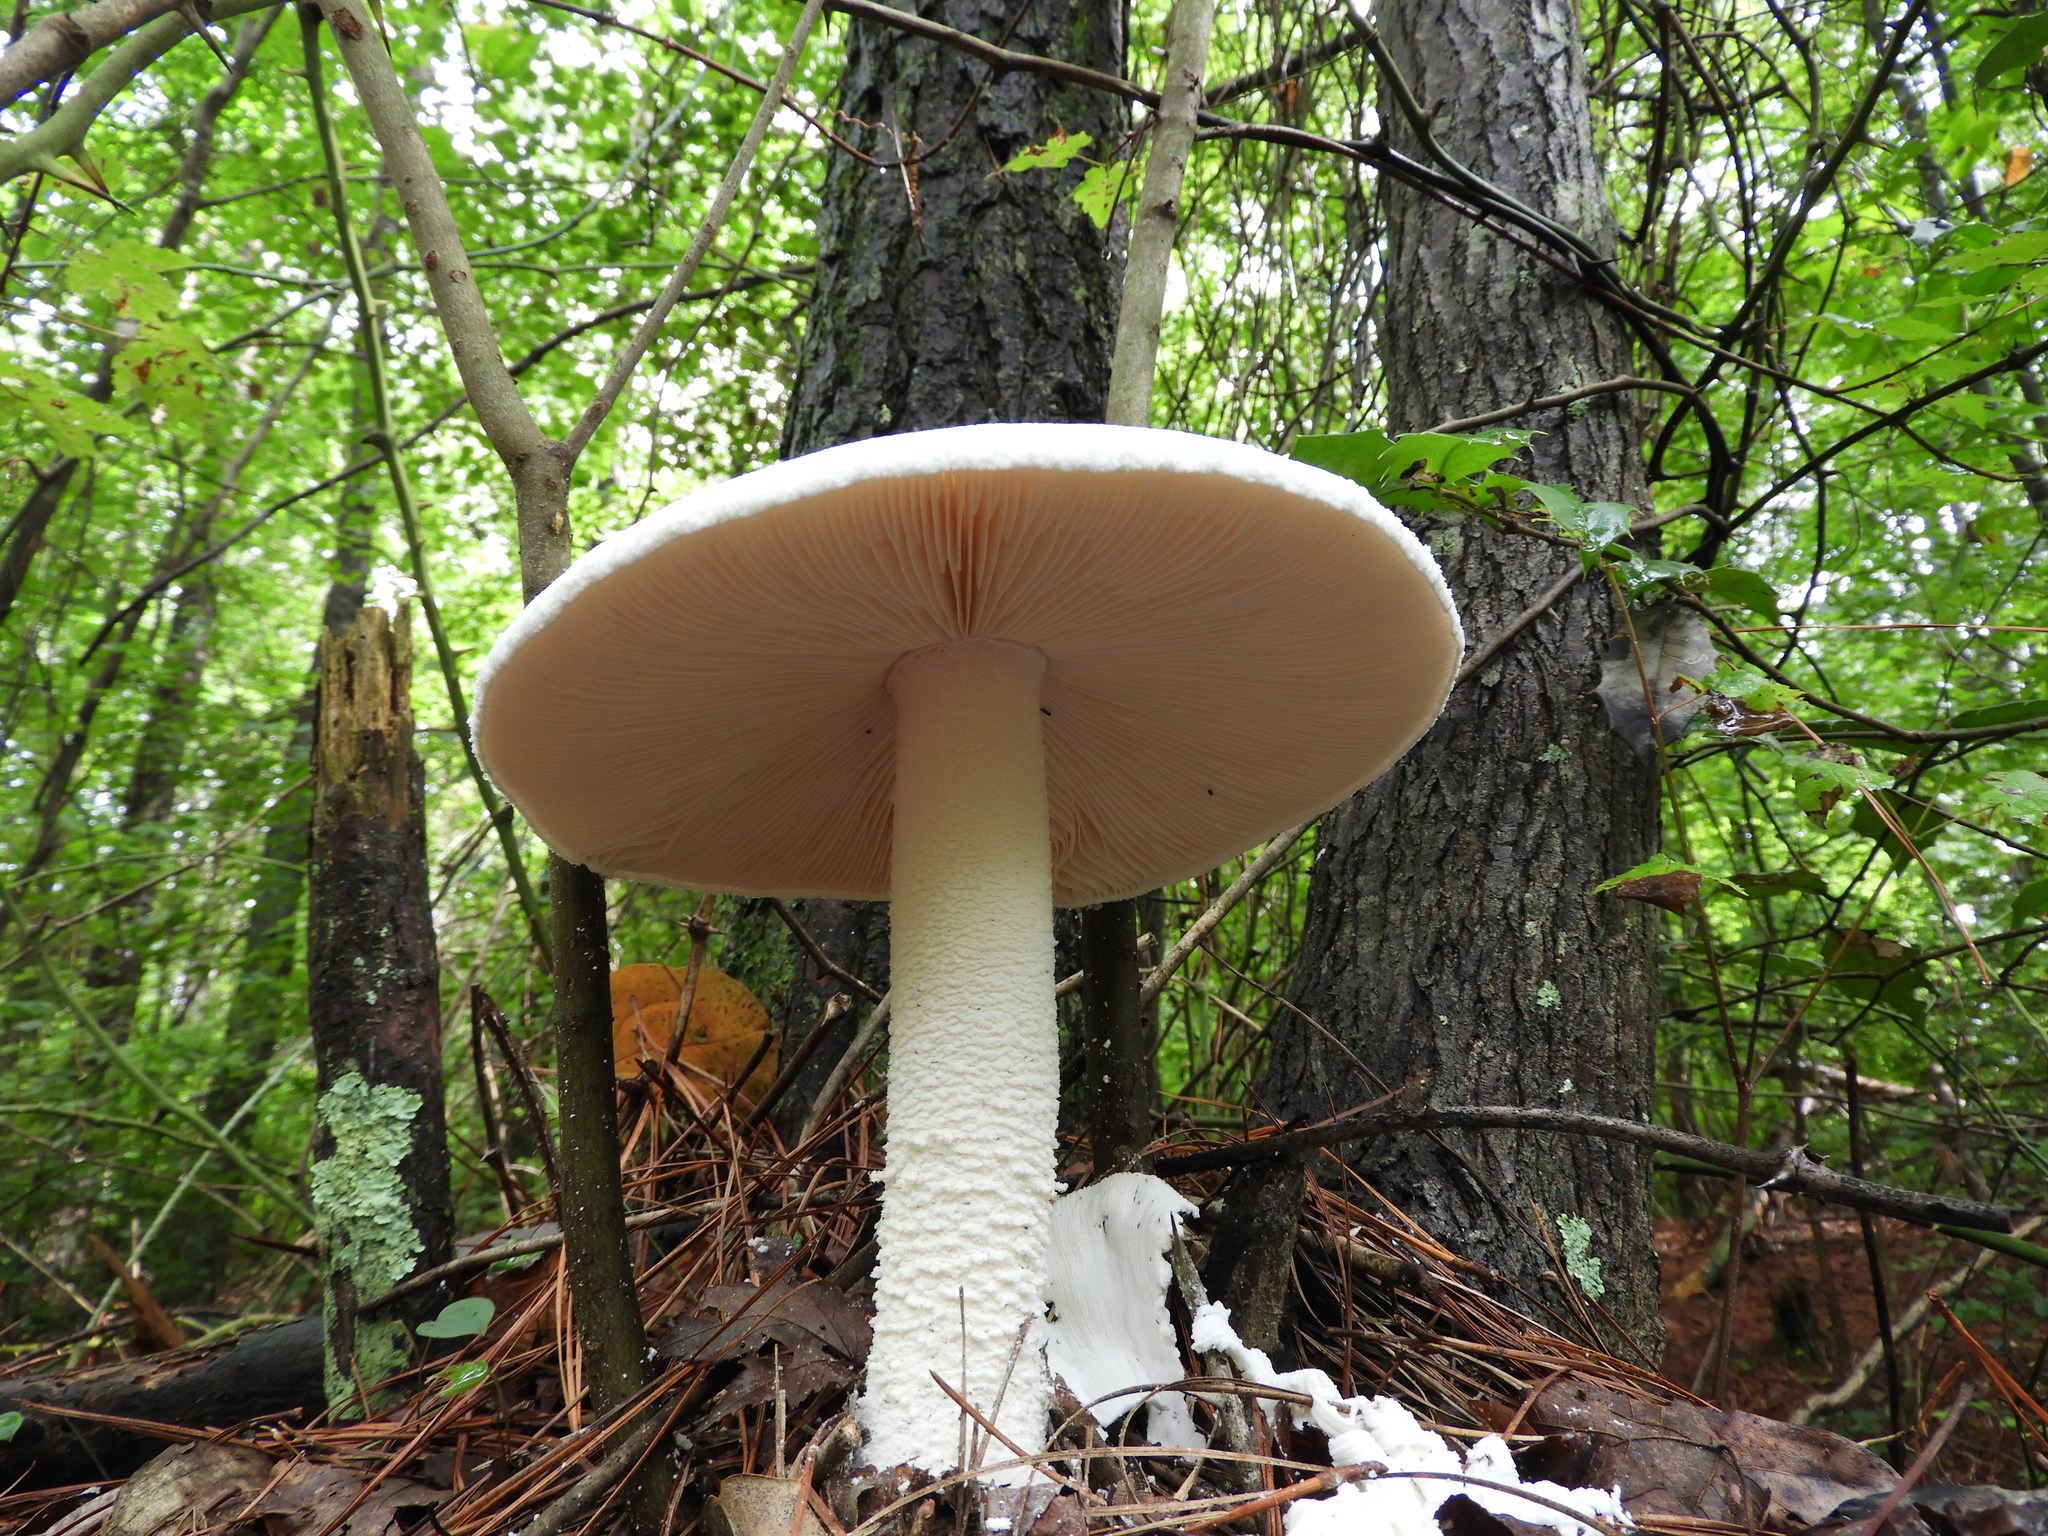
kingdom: Fungi
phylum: Basidiomycota
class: Agaricomycetes
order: Agaricales
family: Amanitaceae
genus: Amanita
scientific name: Amanita
